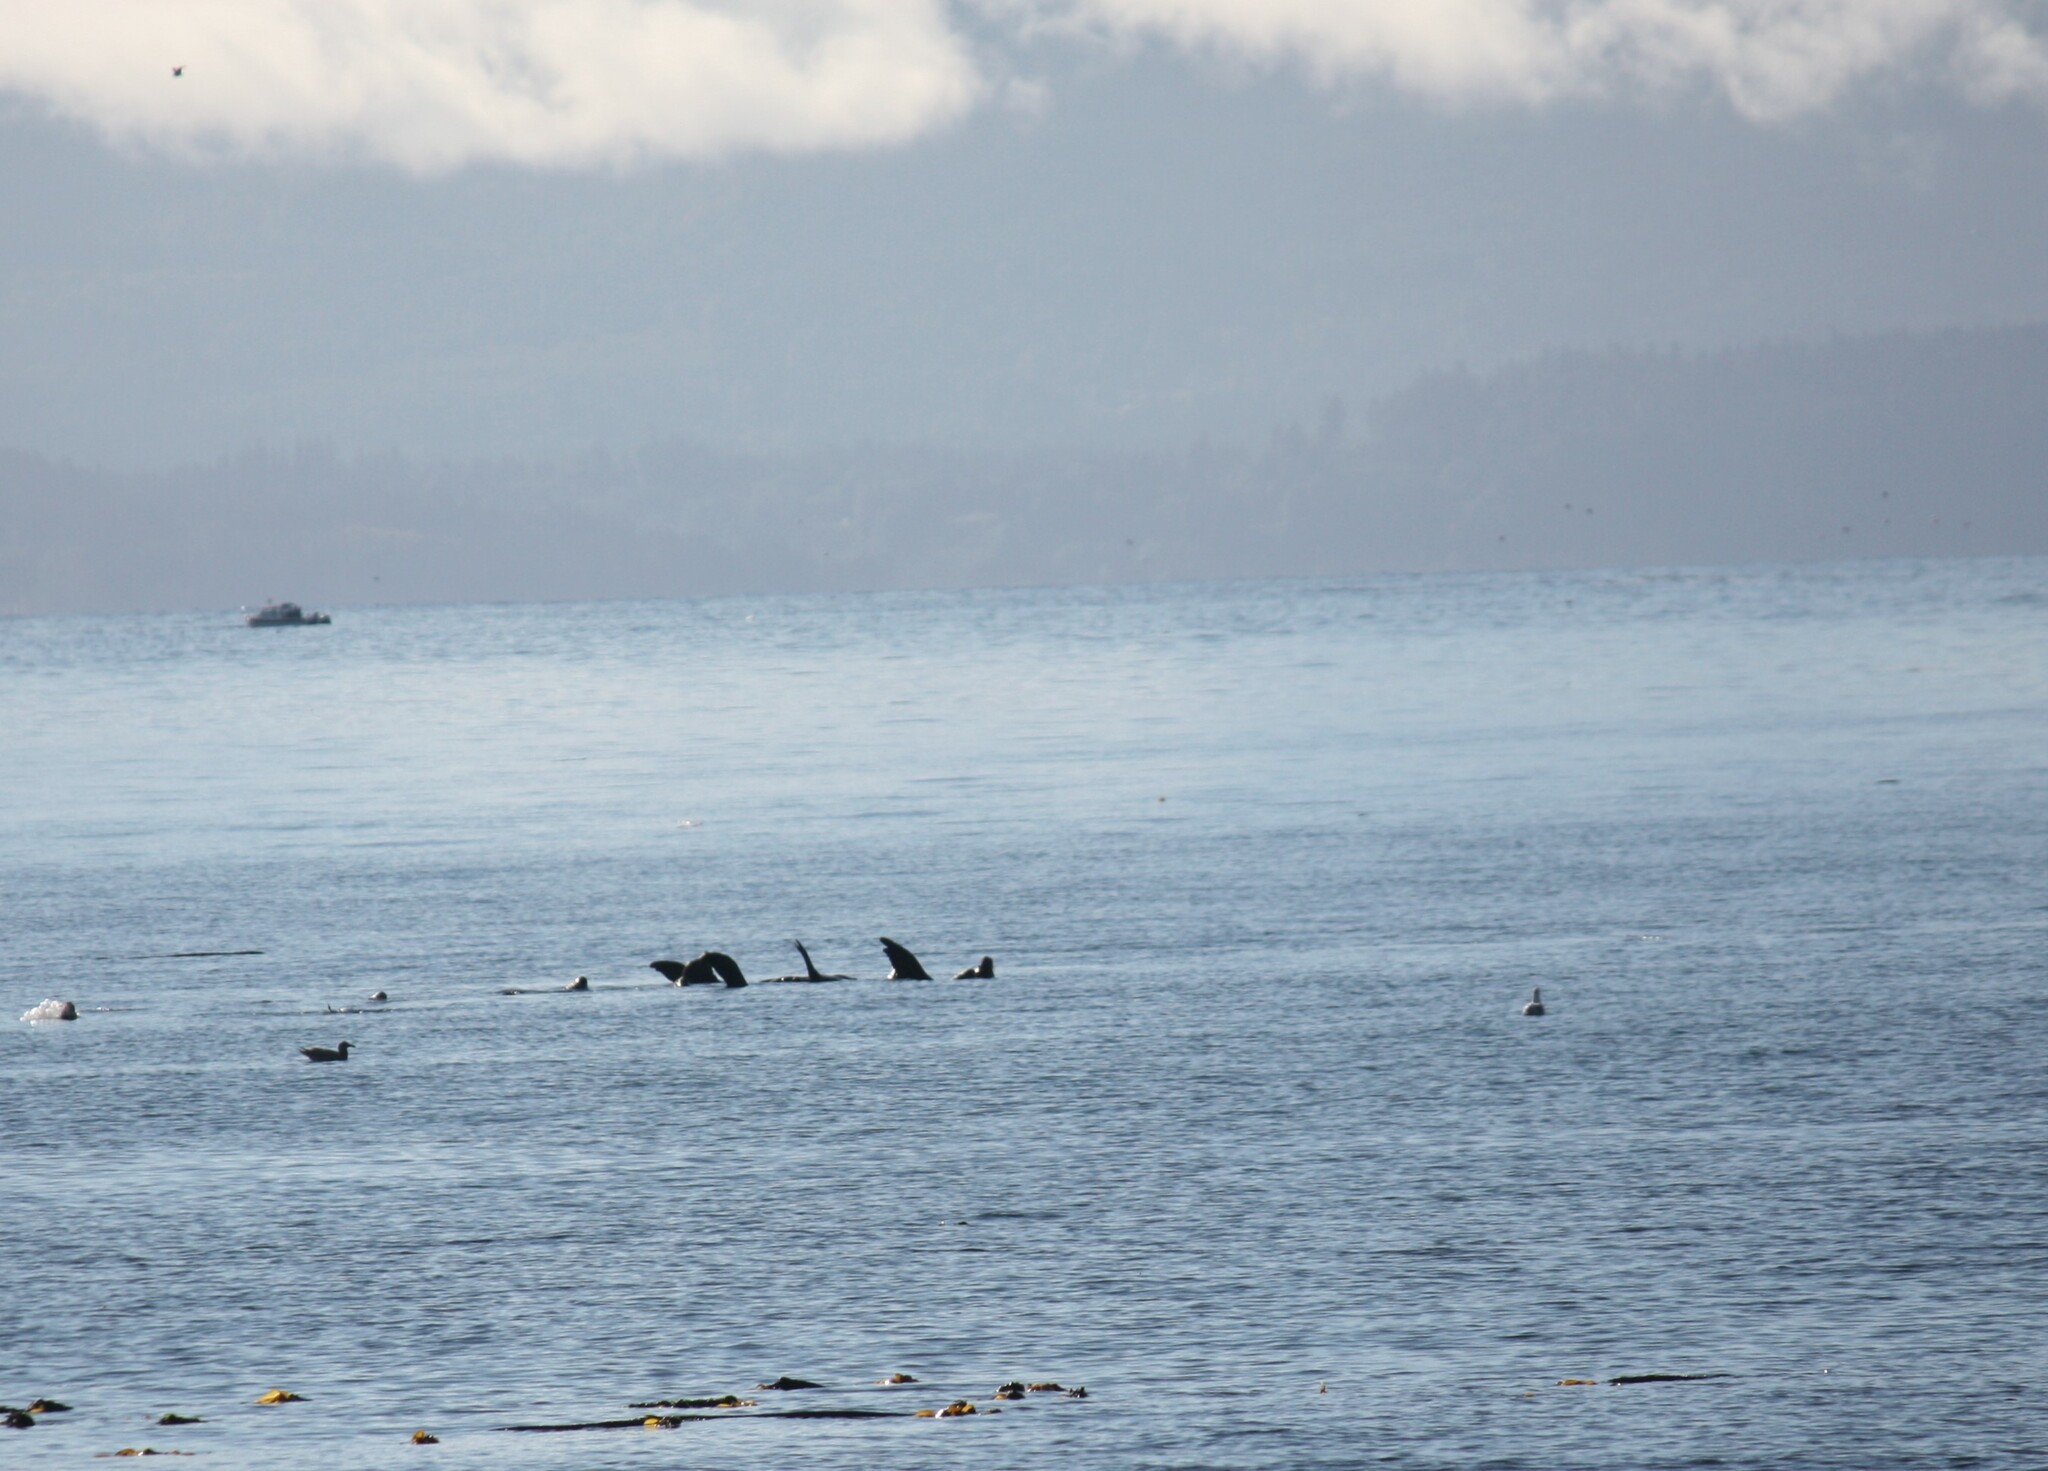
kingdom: Animalia
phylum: Chordata
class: Mammalia
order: Carnivora
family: Otariidae
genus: Zalophus
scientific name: Zalophus californianus
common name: California sea lion
